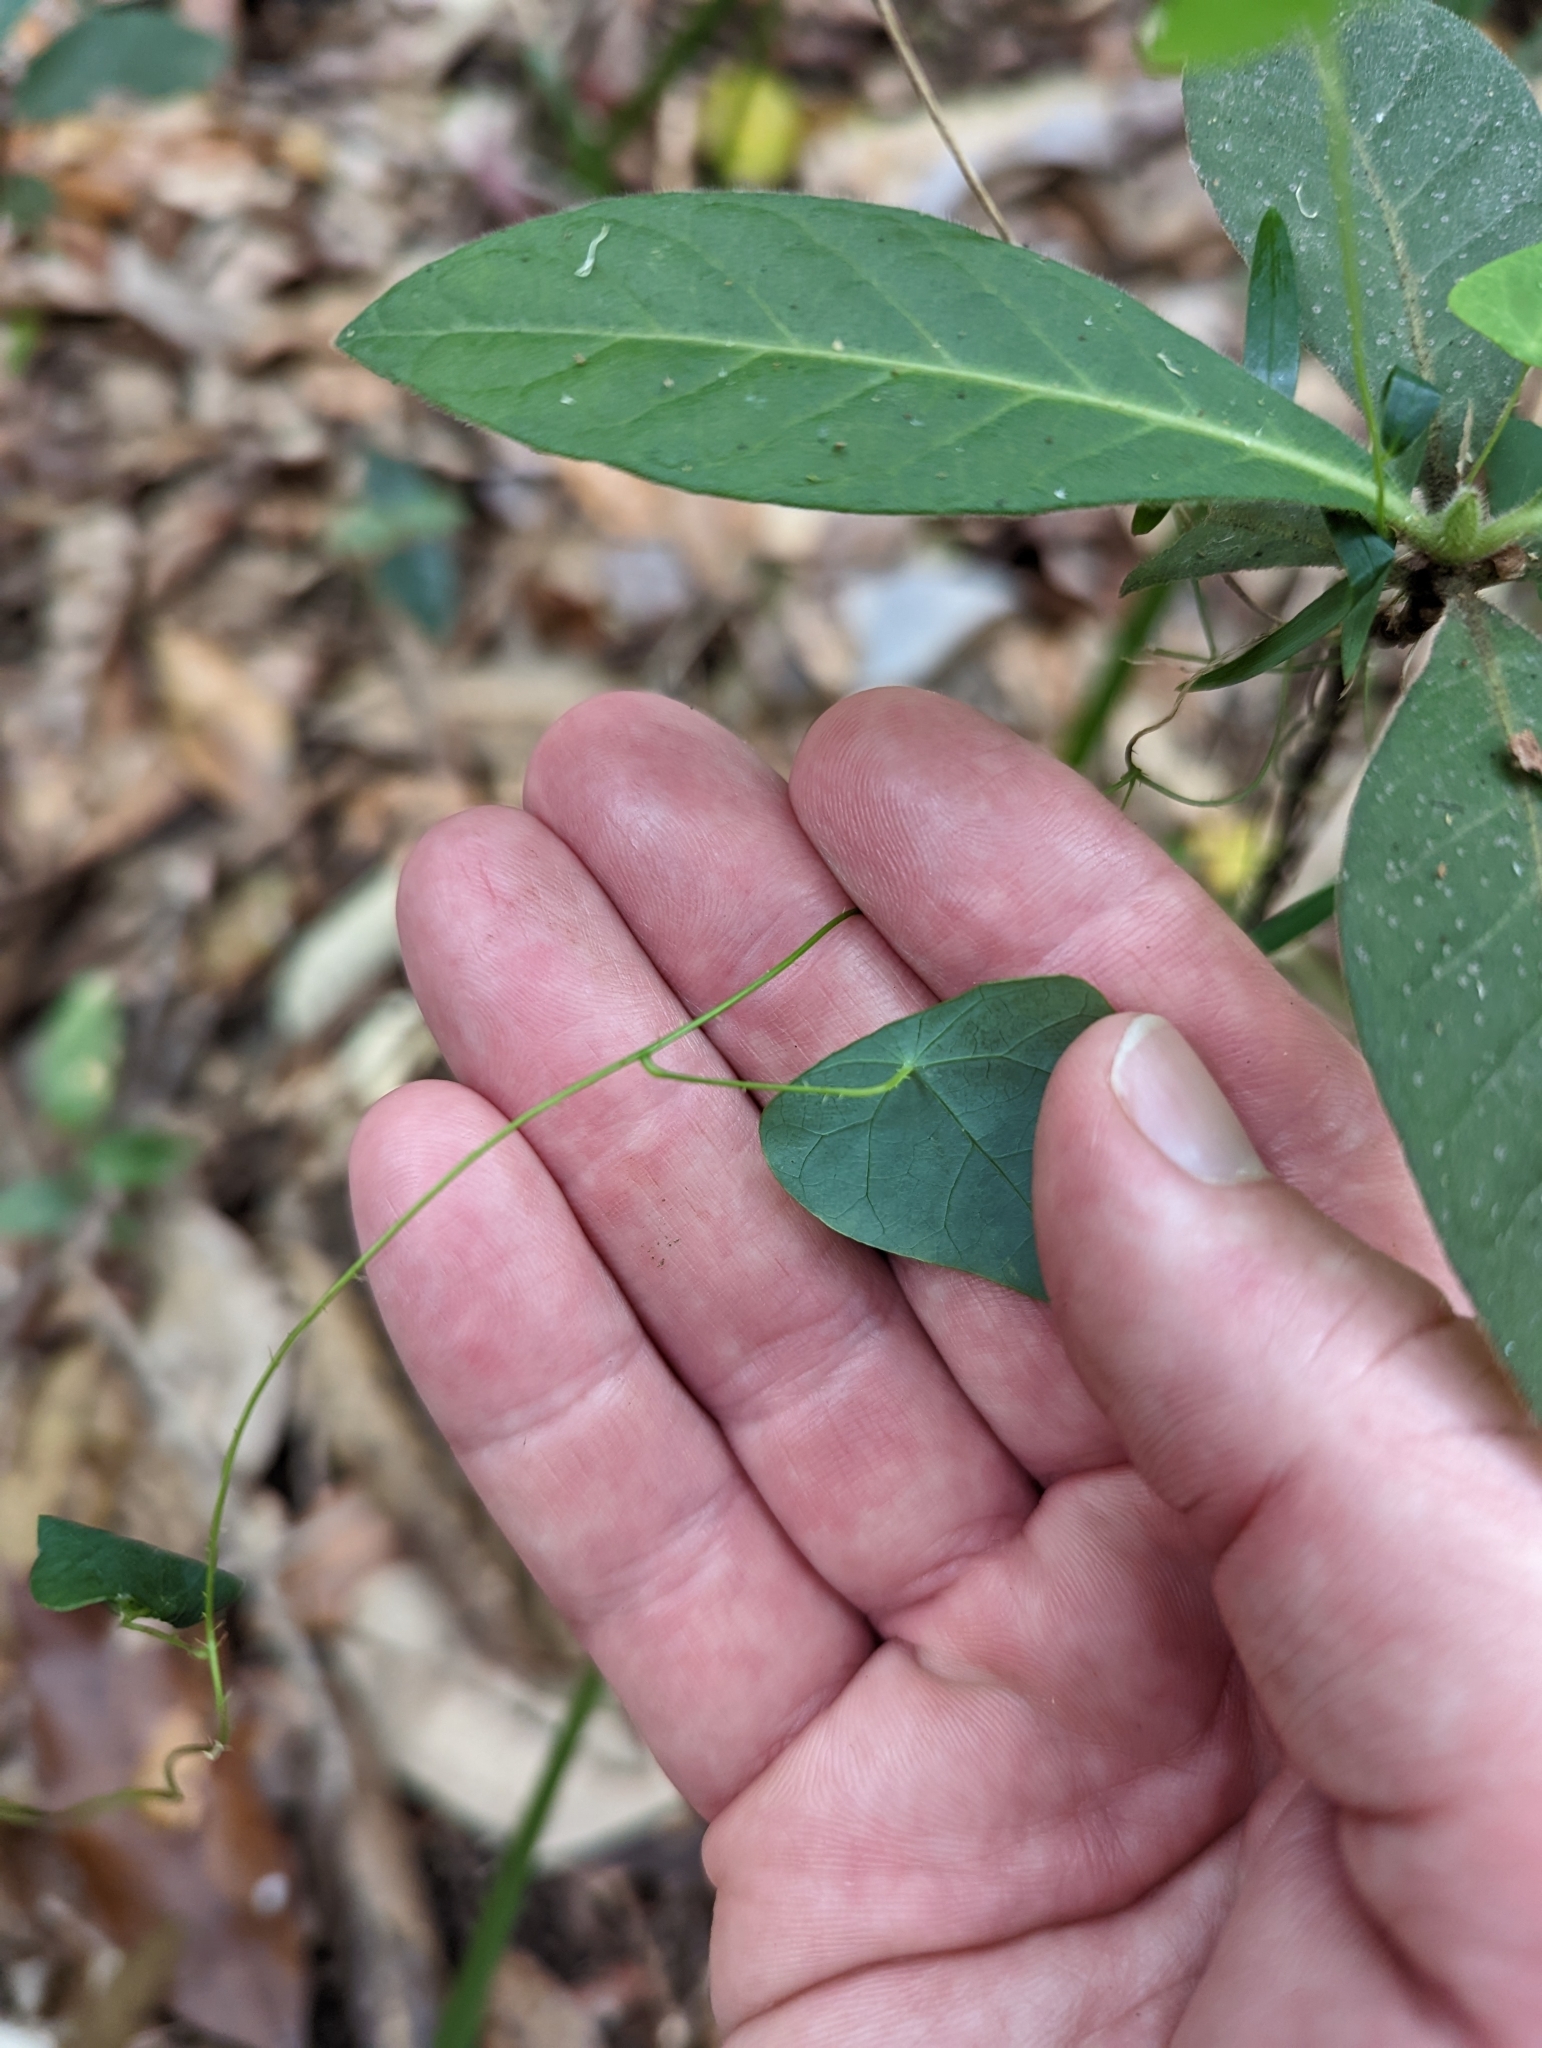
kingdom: Plantae
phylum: Tracheophyta
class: Magnoliopsida
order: Ranunculales
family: Menispermaceae
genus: Stephania
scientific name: Stephania aculeata
